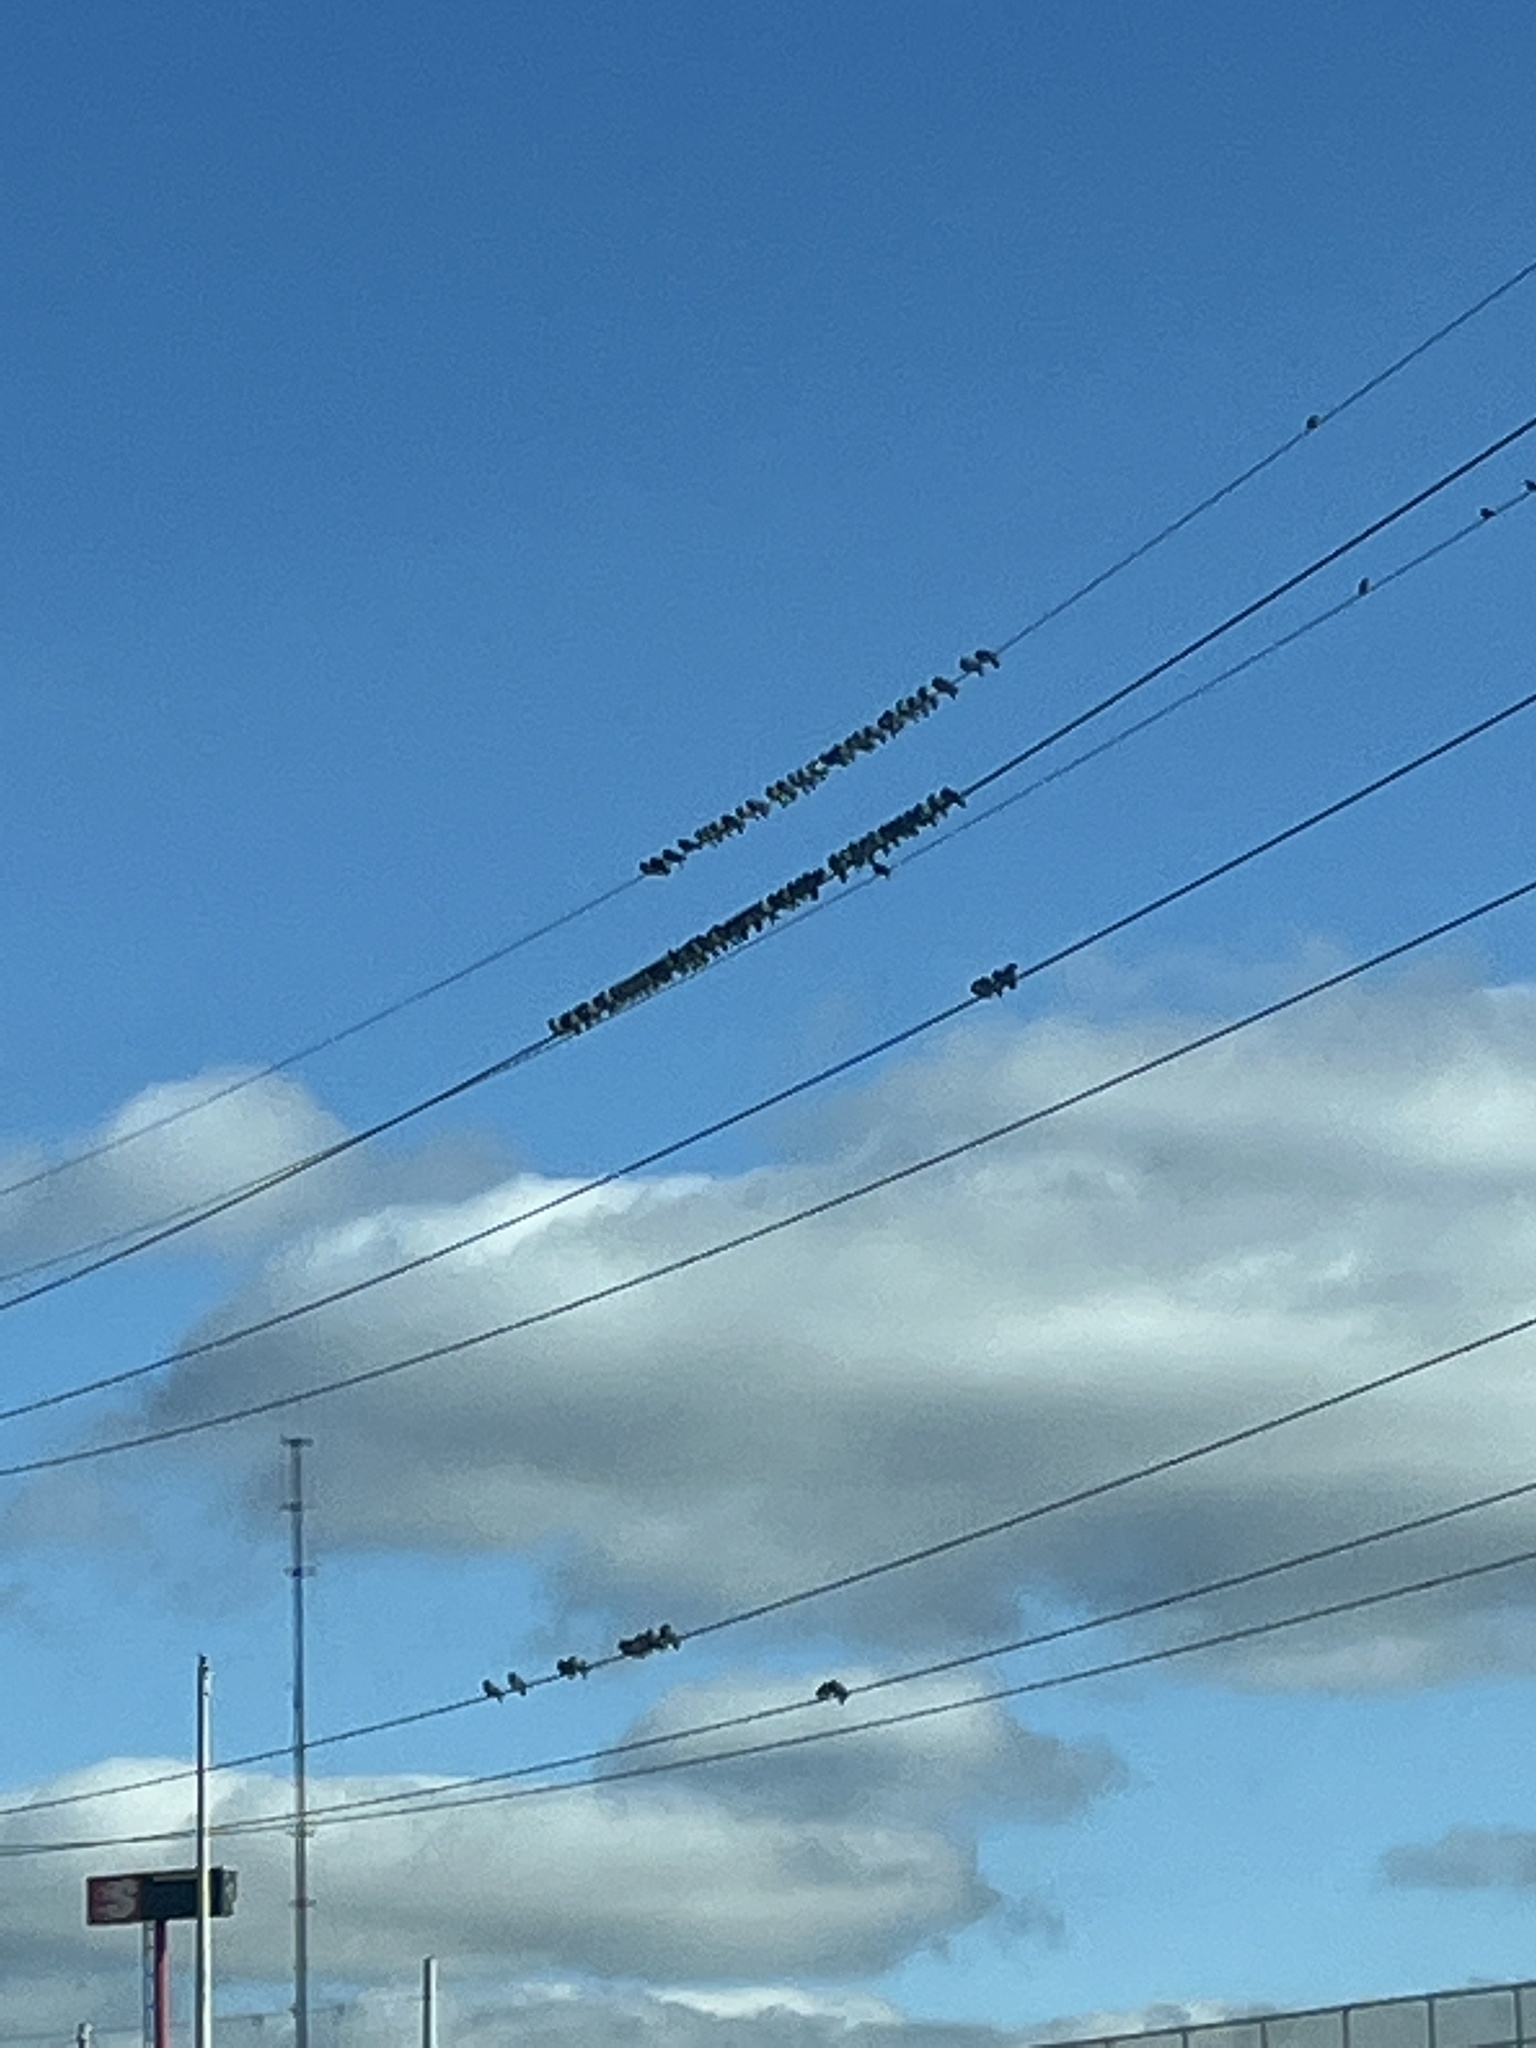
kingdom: Animalia
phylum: Chordata
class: Aves
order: Columbiformes
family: Columbidae
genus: Columba
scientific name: Columba livia
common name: Rock pigeon
